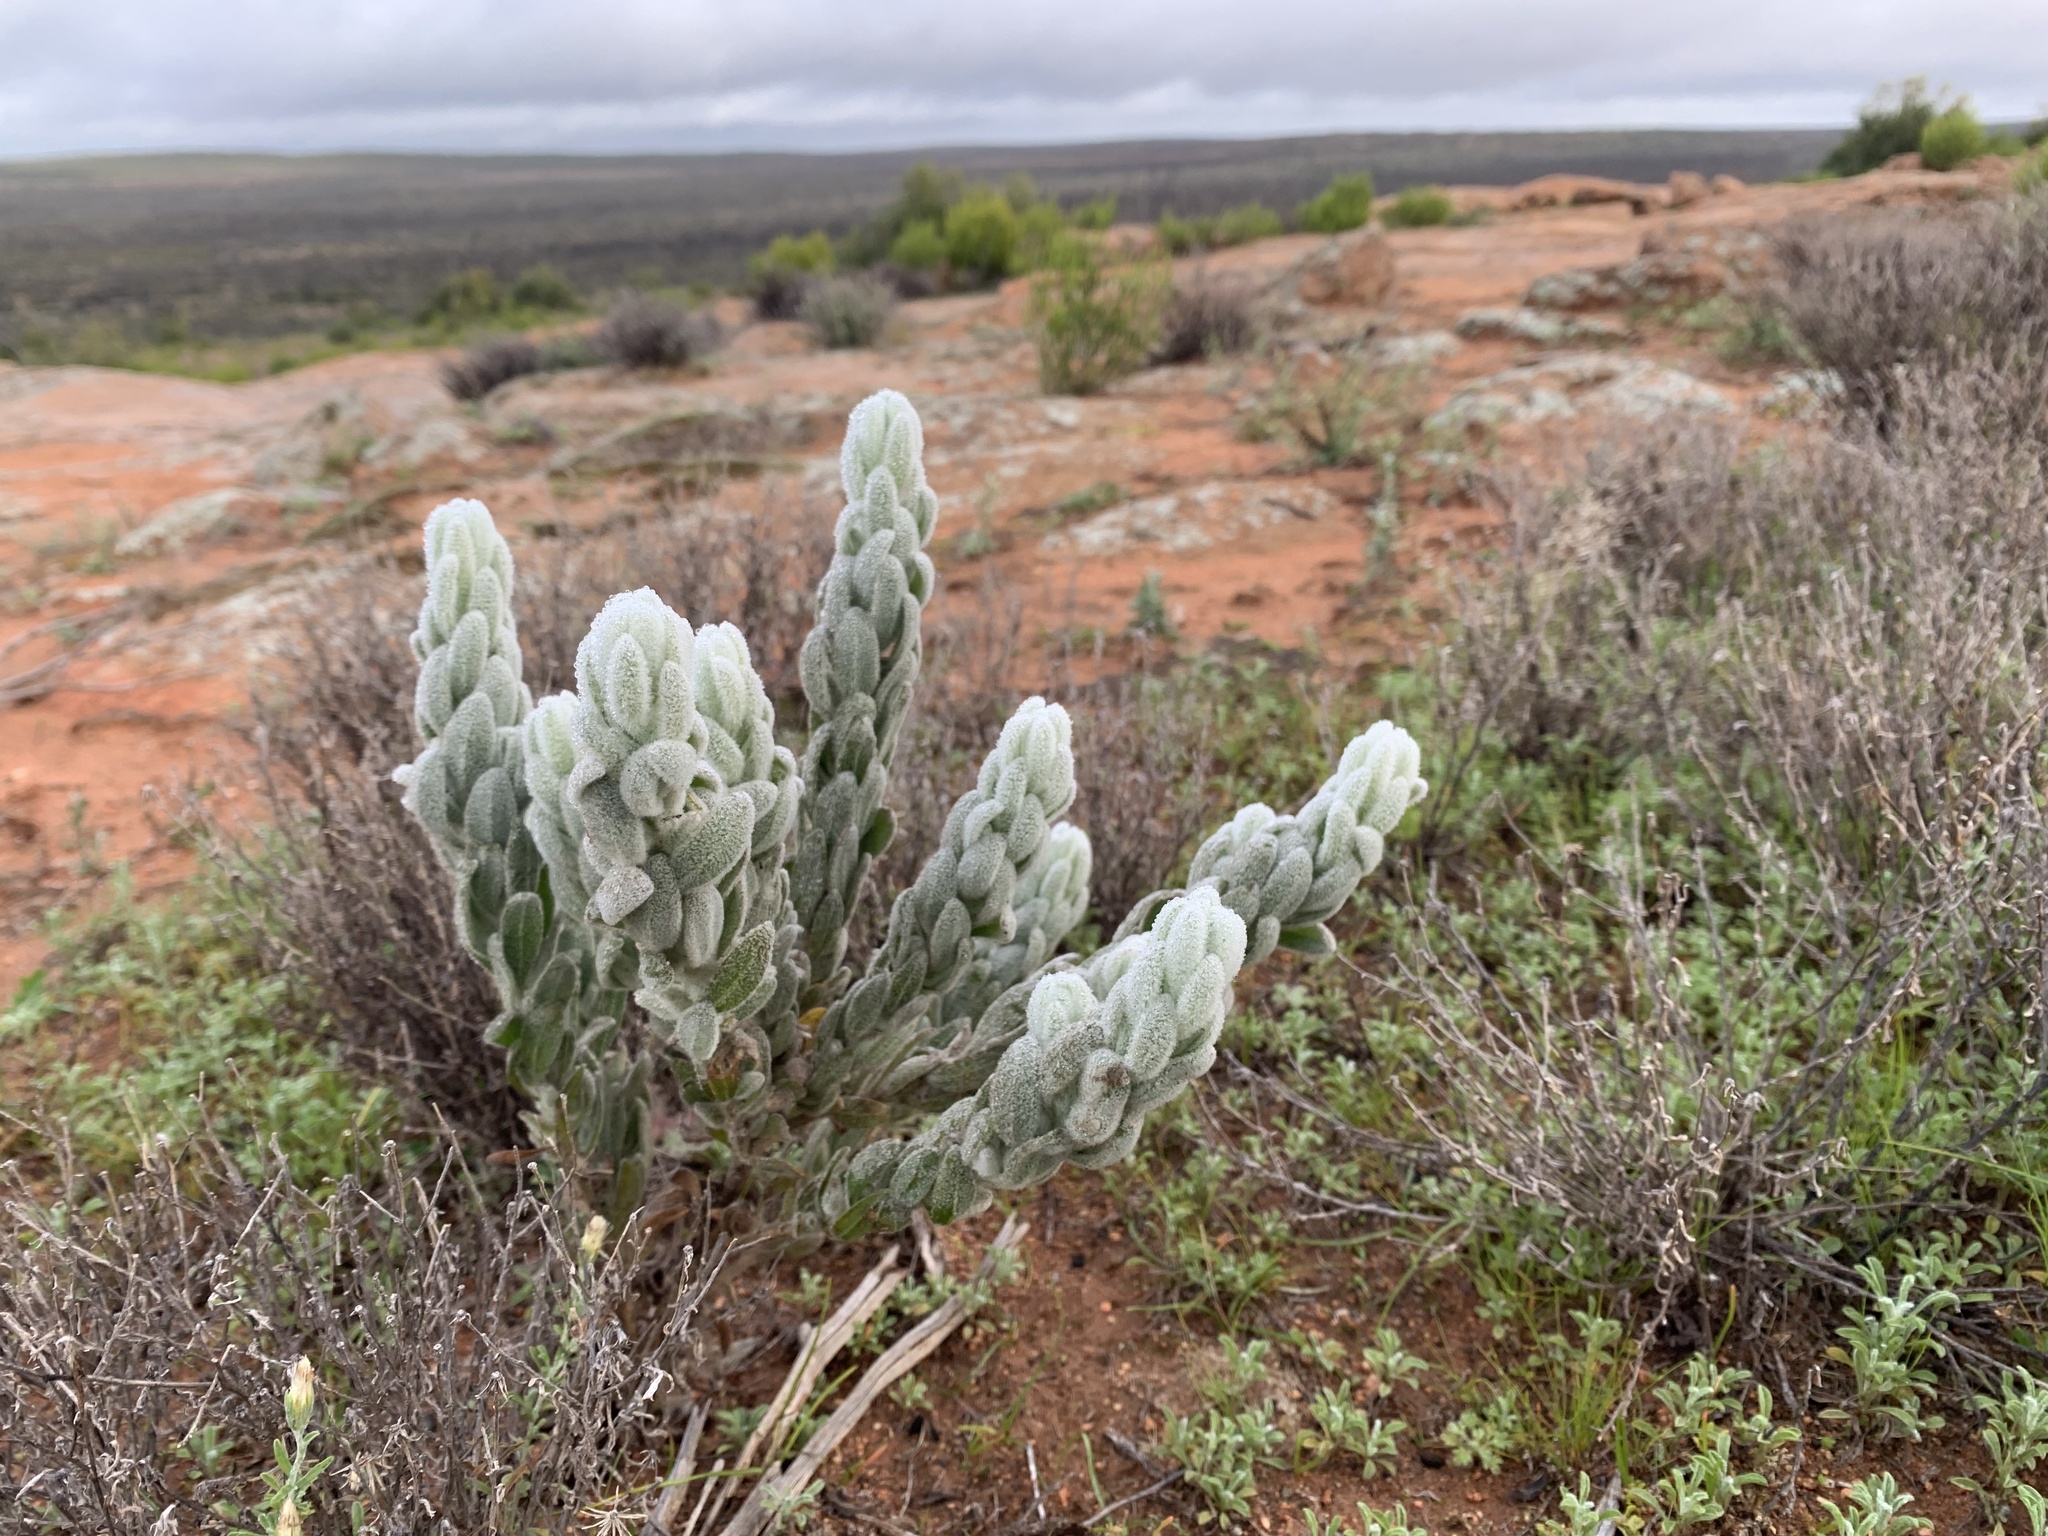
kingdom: Plantae
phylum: Tracheophyta
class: Magnoliopsida
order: Lamiales
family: Scrophulariaceae
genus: Eremophila
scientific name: Eremophila subfloccosa
